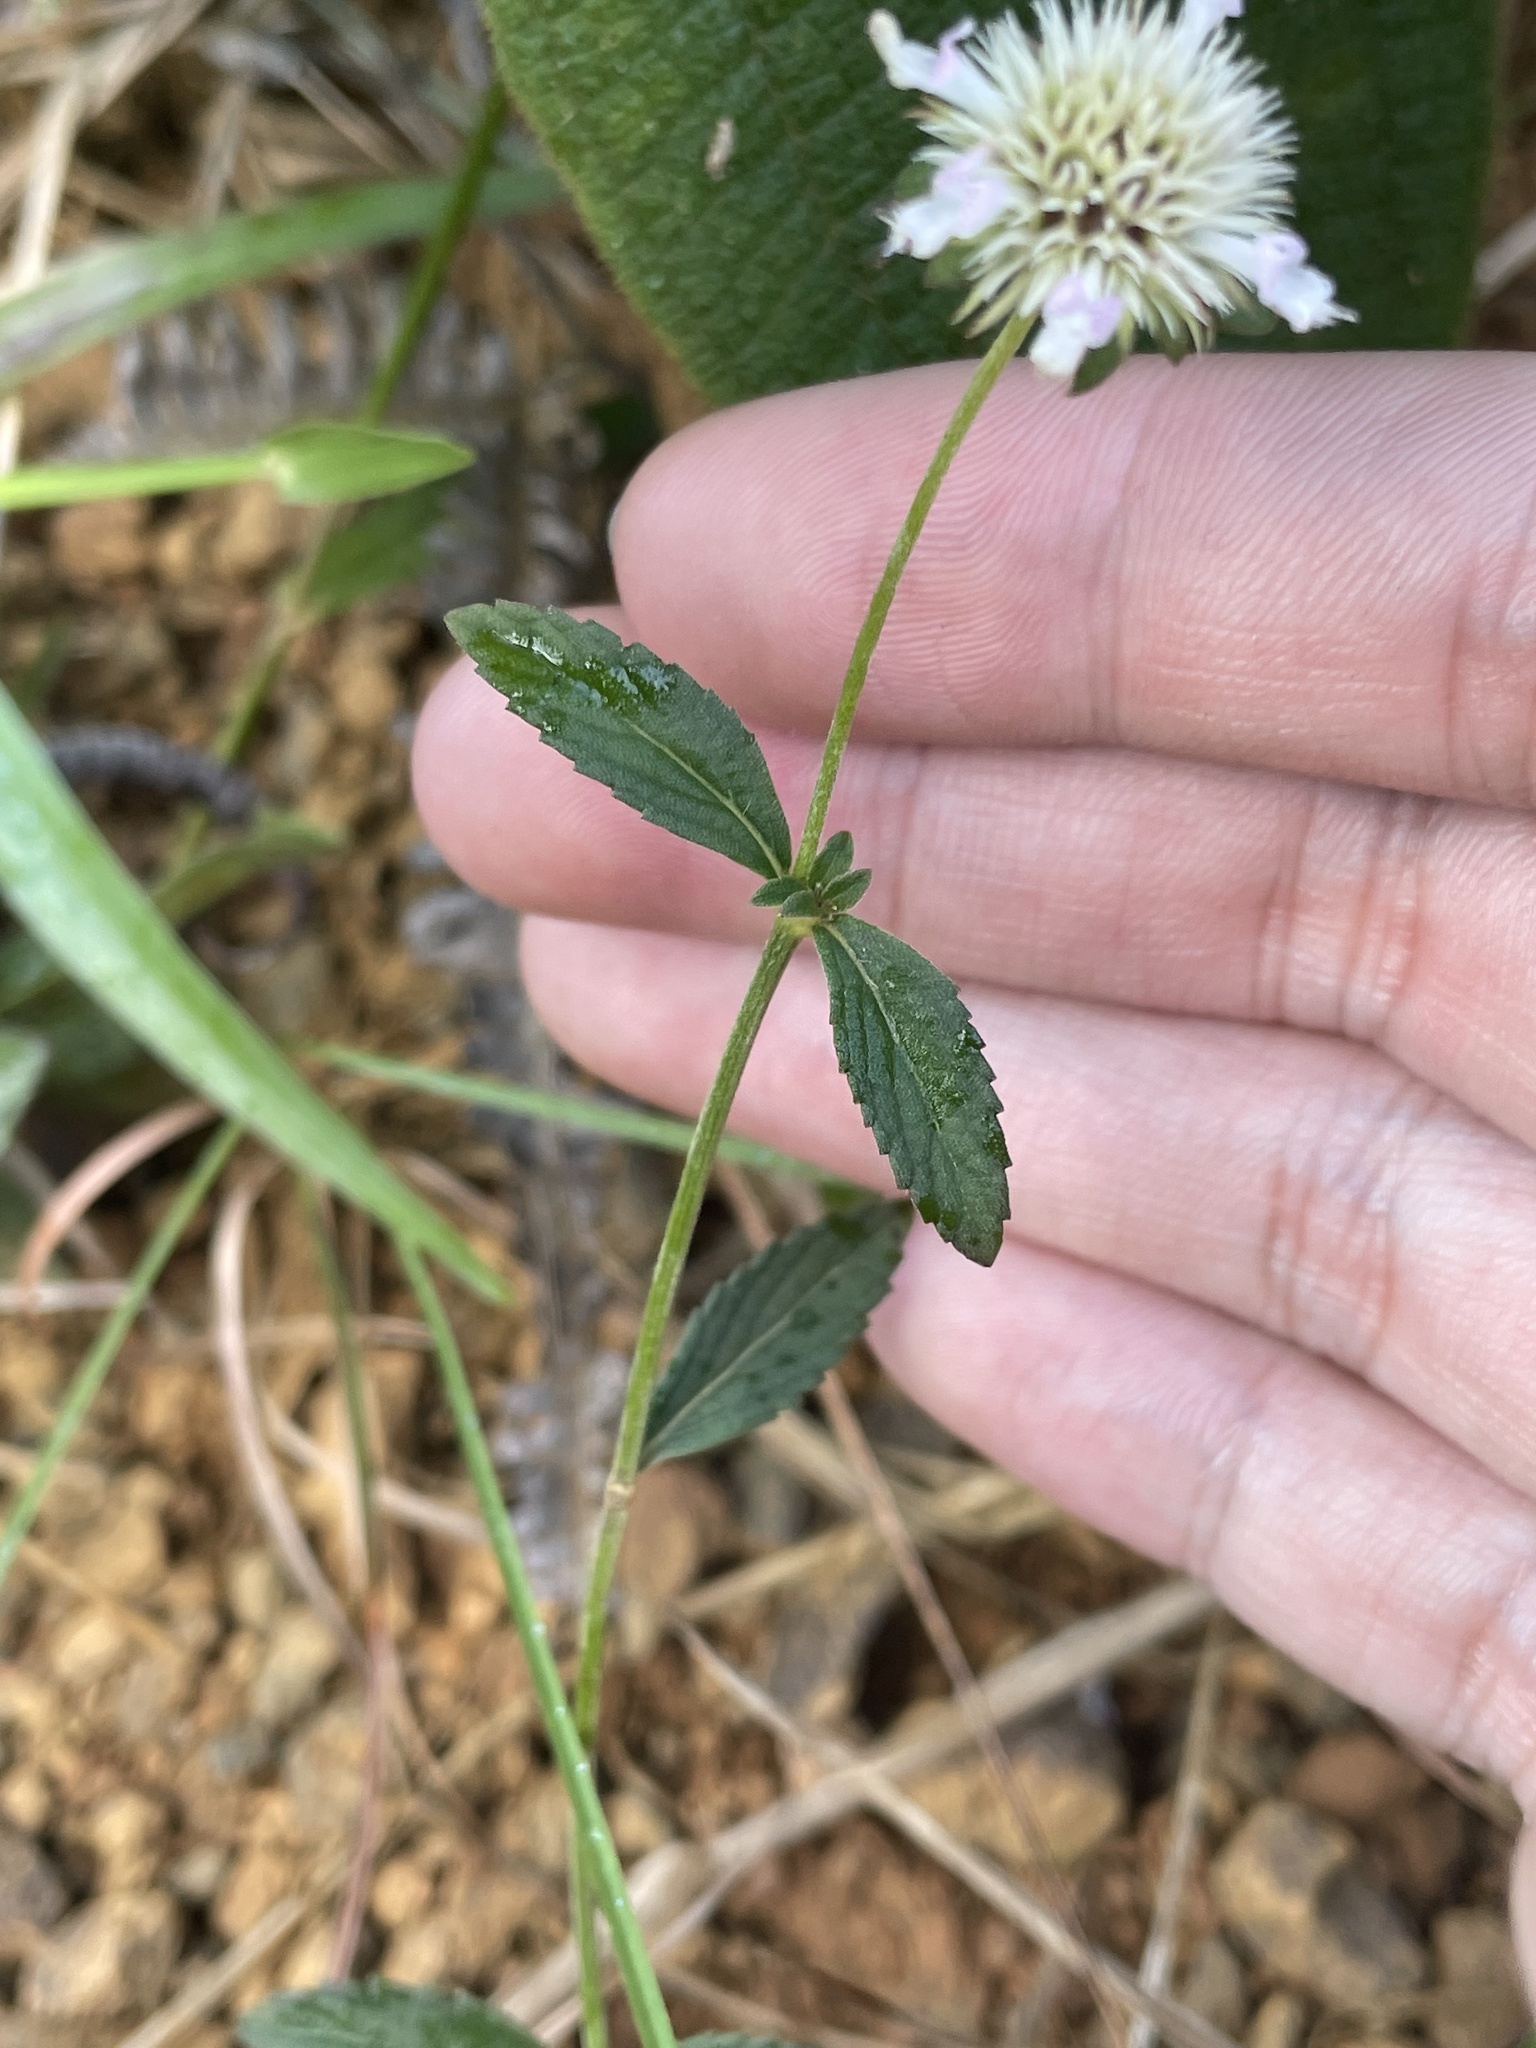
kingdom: Plantae
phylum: Tracheophyta
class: Magnoliopsida
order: Asterales
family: Asteraceae
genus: Melanthera
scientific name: Melanthera nivea
